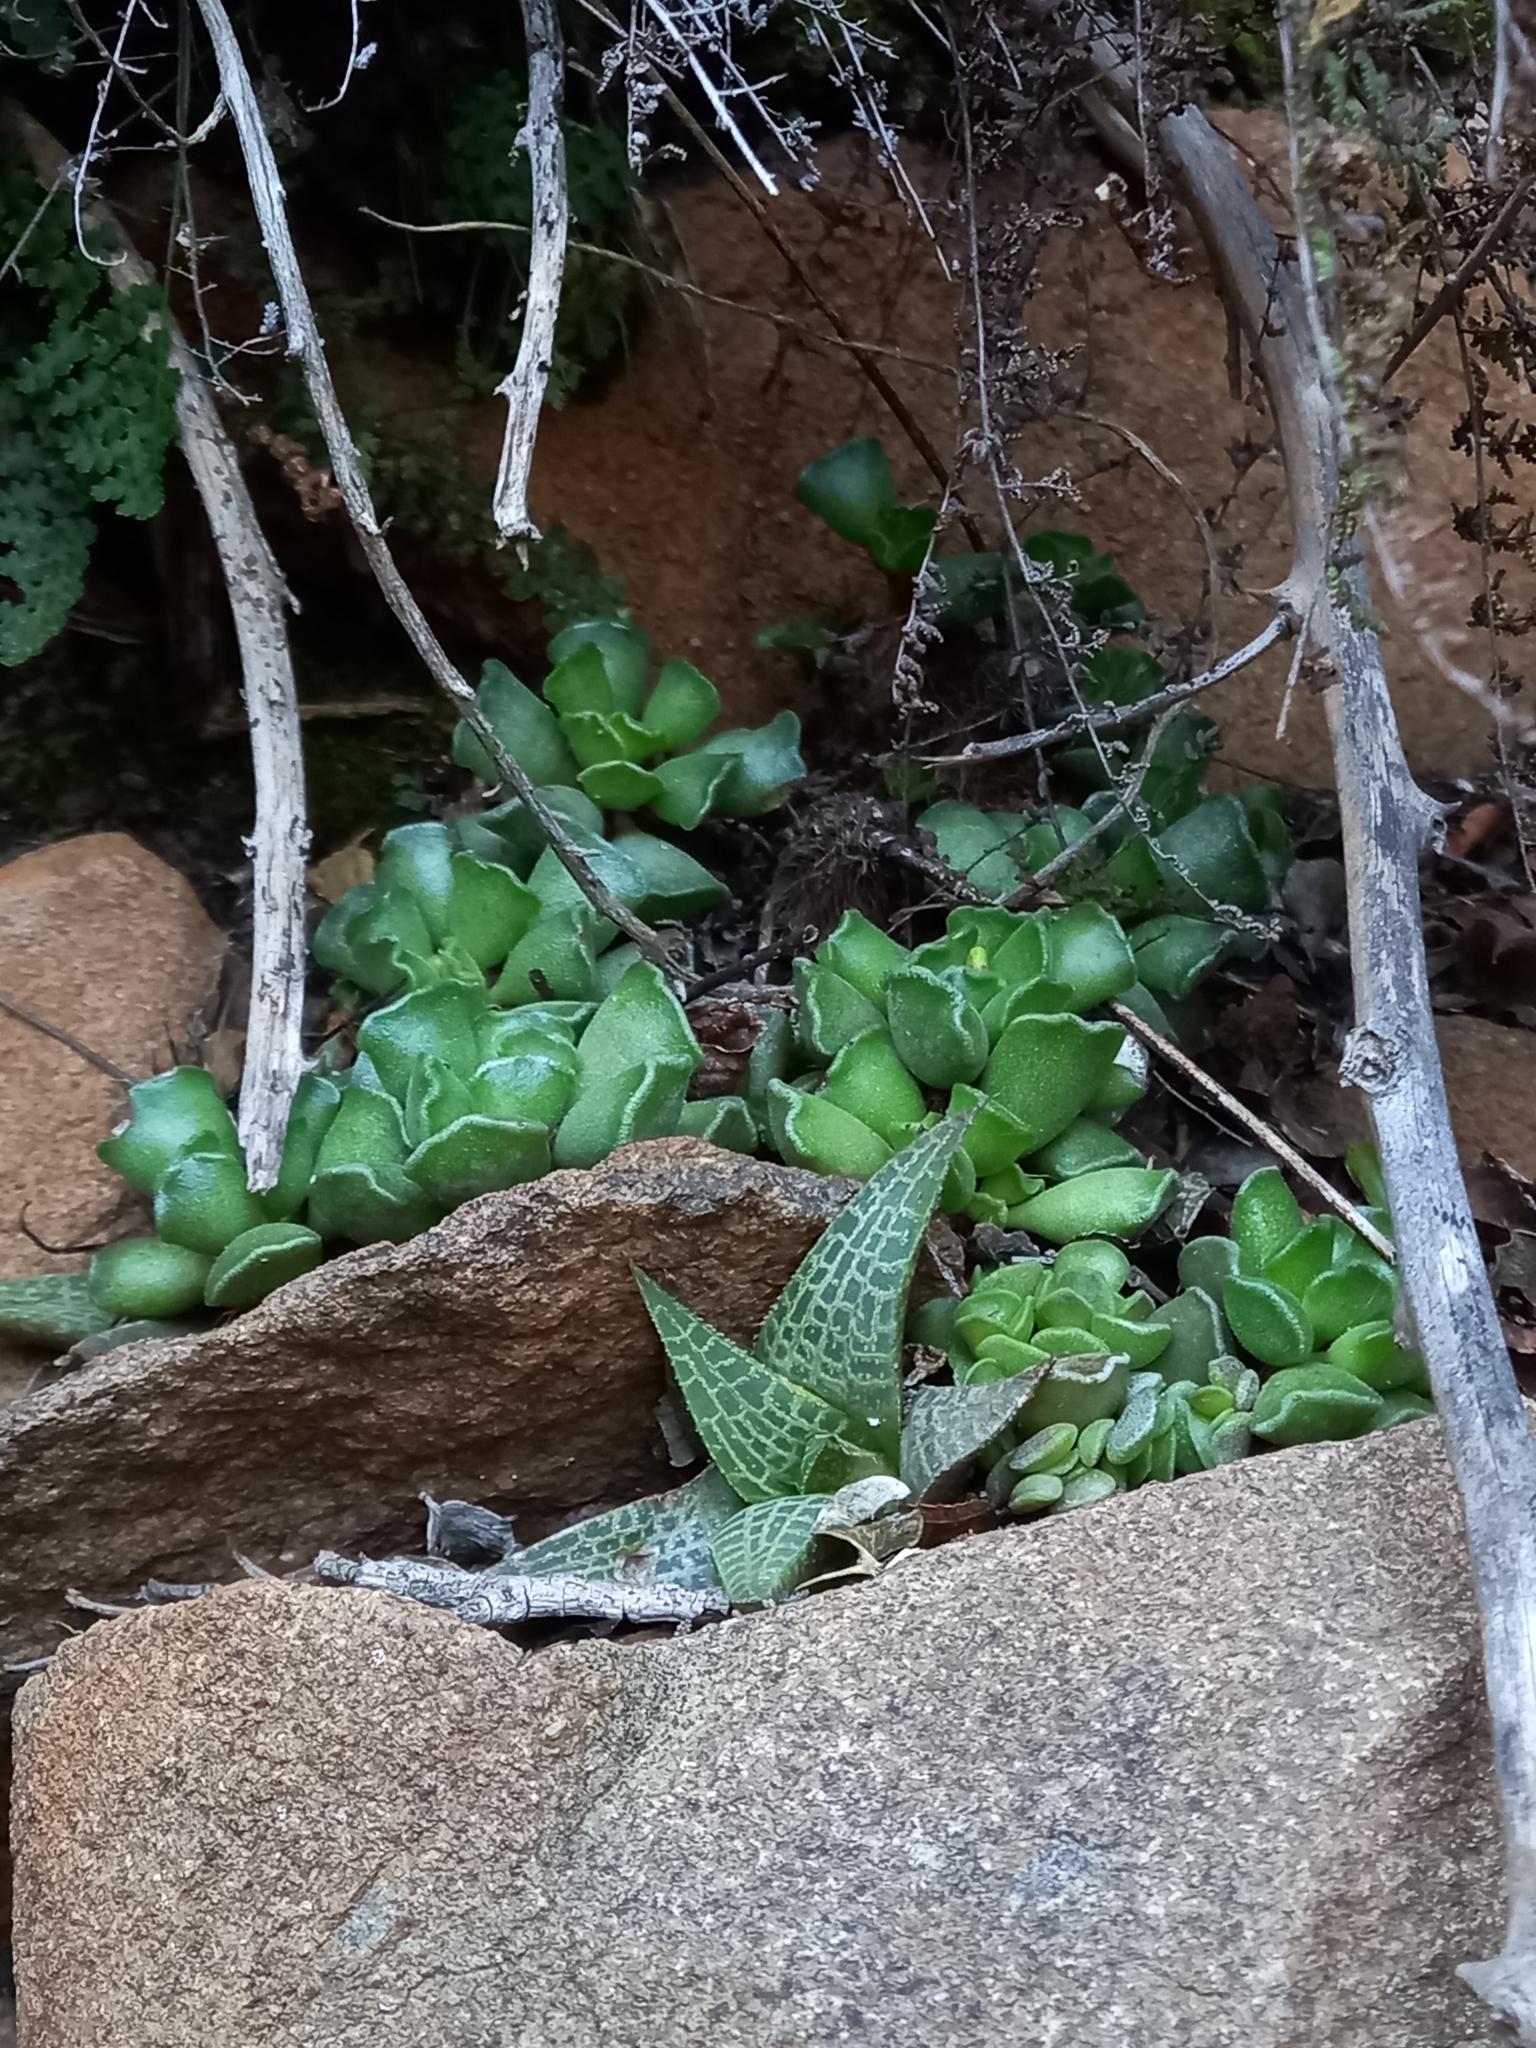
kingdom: Plantae
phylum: Tracheophyta
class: Liliopsida
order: Asparagales
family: Asphodelaceae
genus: Haworthiopsis
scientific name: Haworthiopsis tessellata
